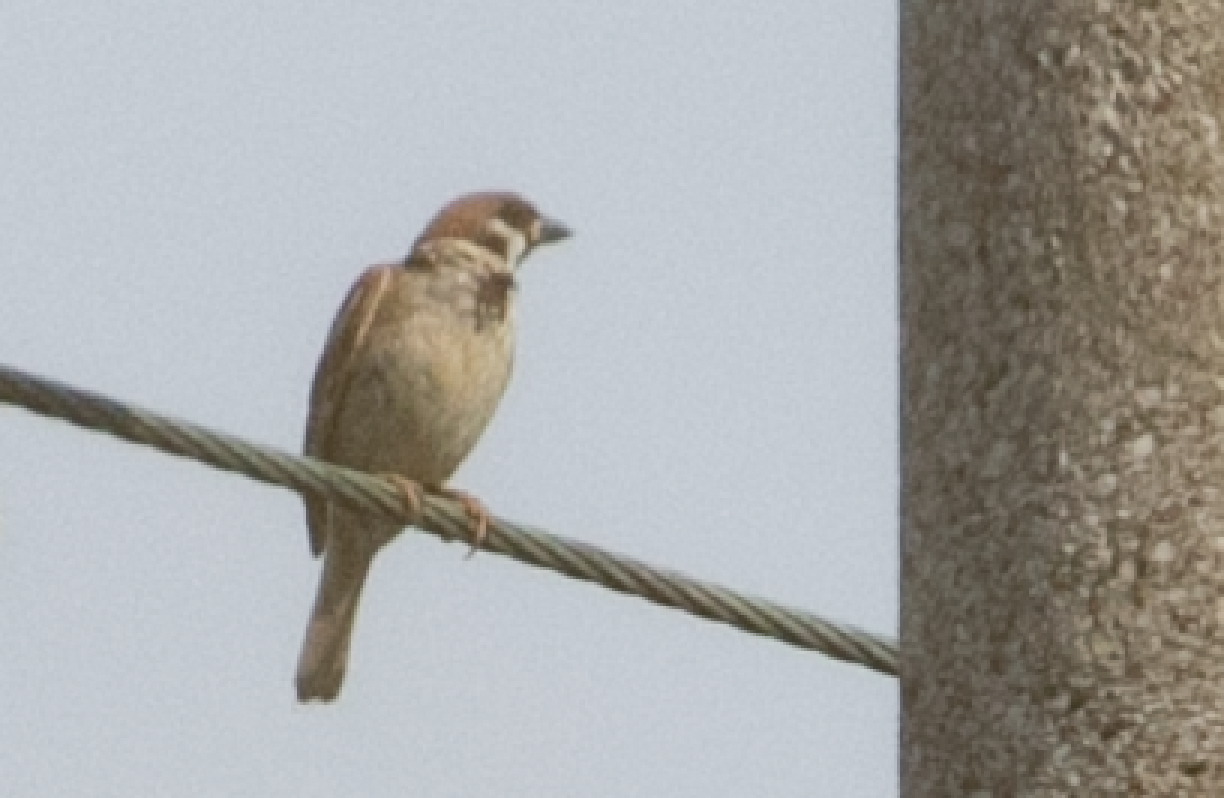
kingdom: Animalia
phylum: Chordata
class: Aves
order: Passeriformes
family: Passeridae
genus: Passer
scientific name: Passer montanus
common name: Eurasian tree sparrow
